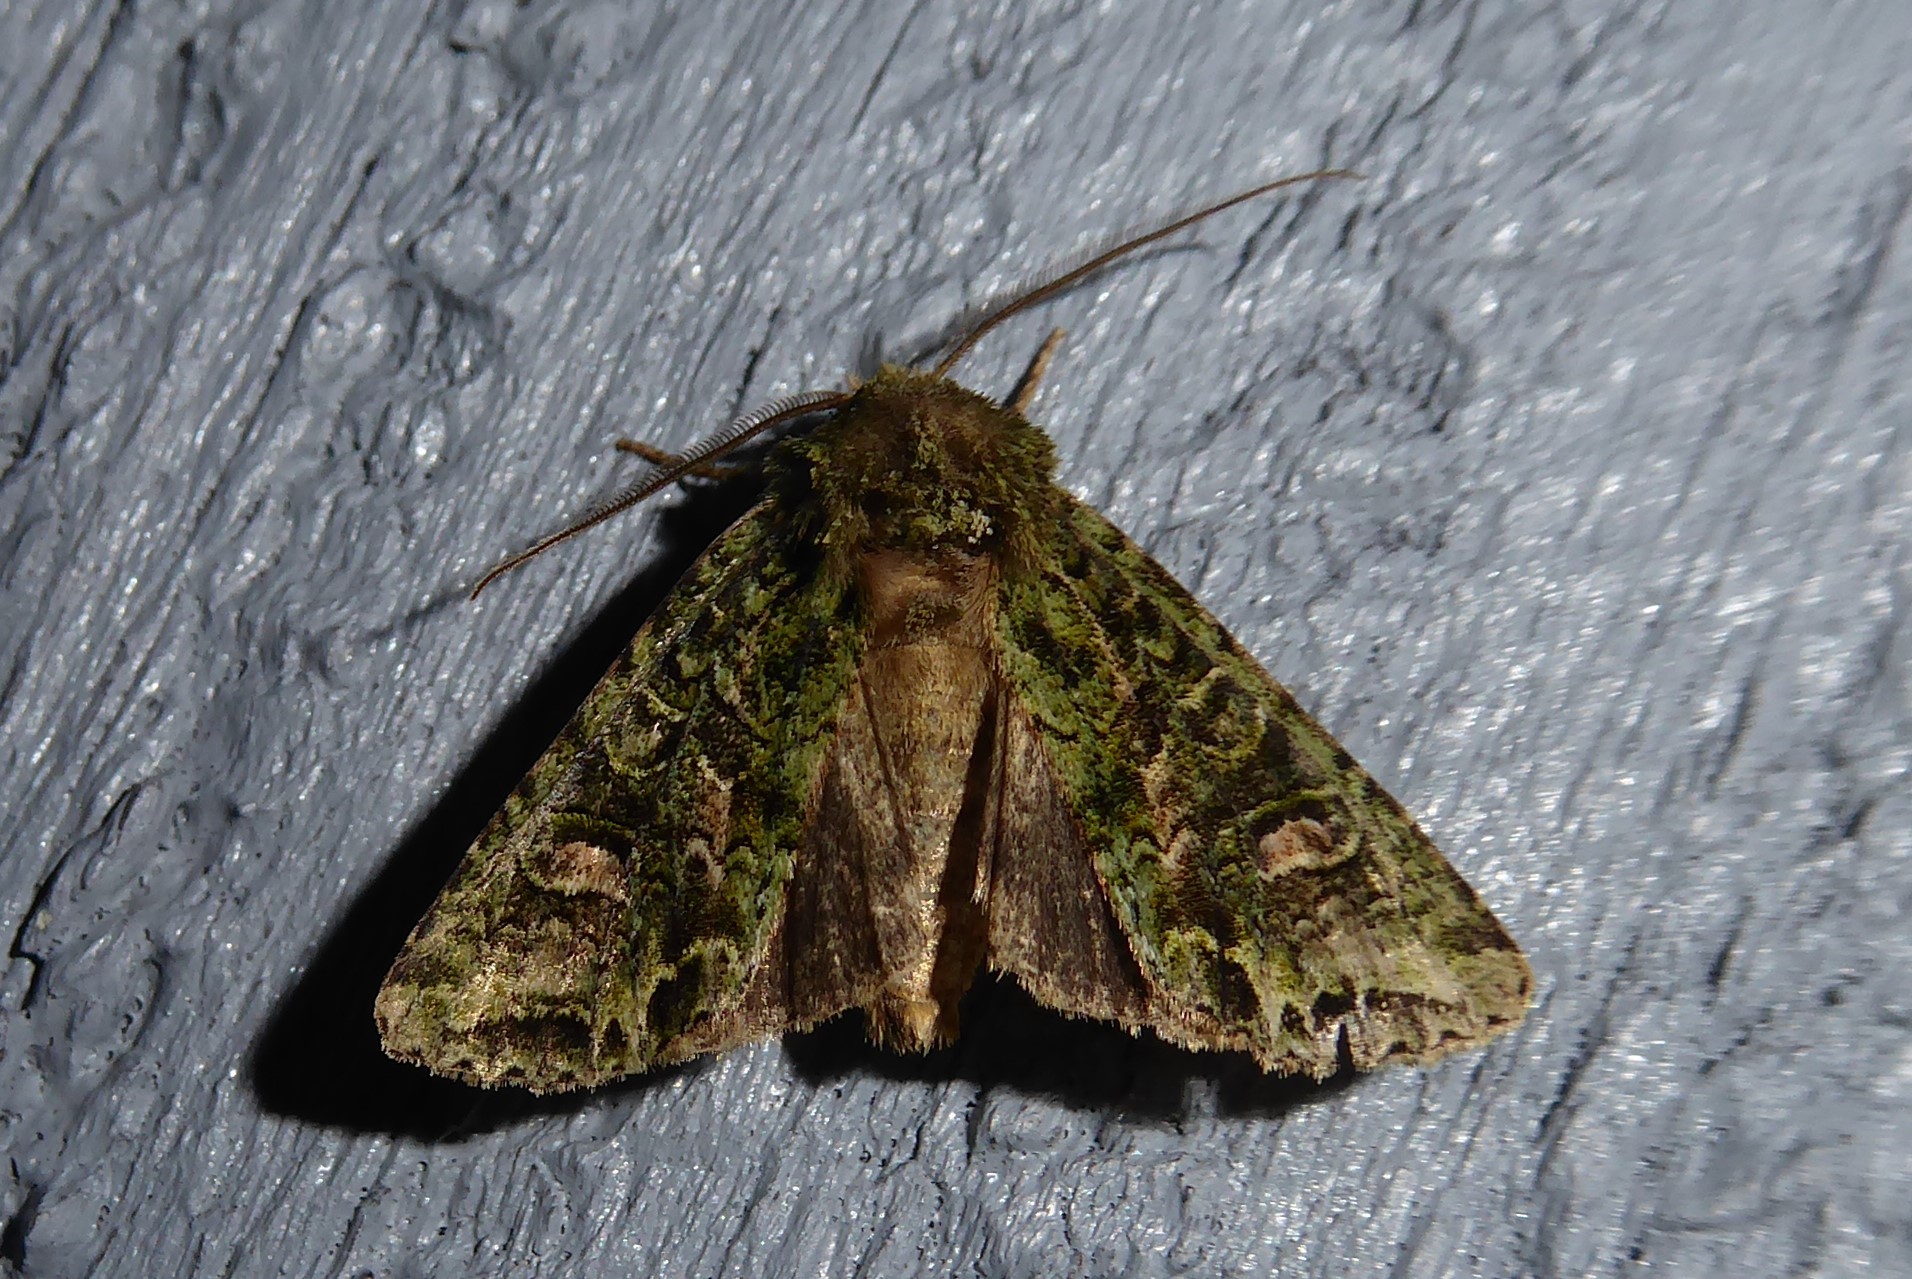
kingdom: Animalia
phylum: Arthropoda
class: Insecta
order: Lepidoptera
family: Noctuidae
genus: Ichneutica
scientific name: Ichneutica
